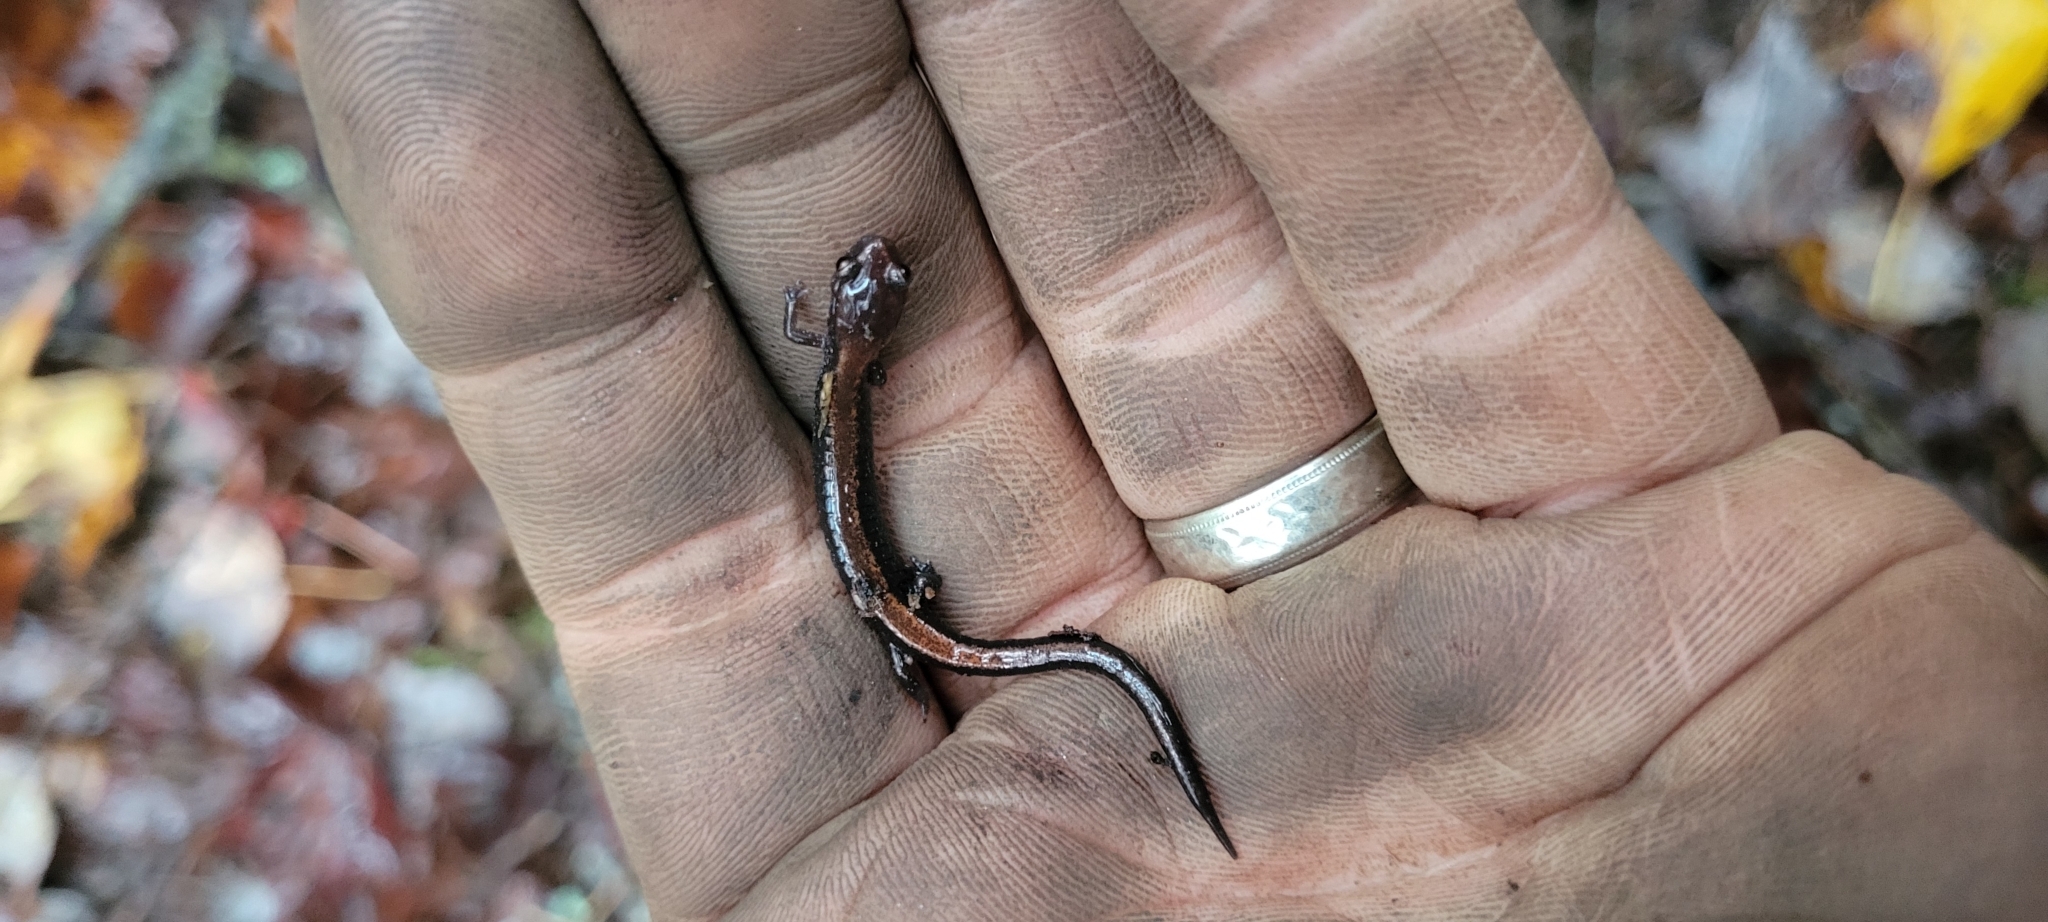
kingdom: Animalia
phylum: Chordata
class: Amphibia
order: Caudata
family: Plethodontidae
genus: Plethodon
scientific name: Plethodon cinereus
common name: Redback salamander
